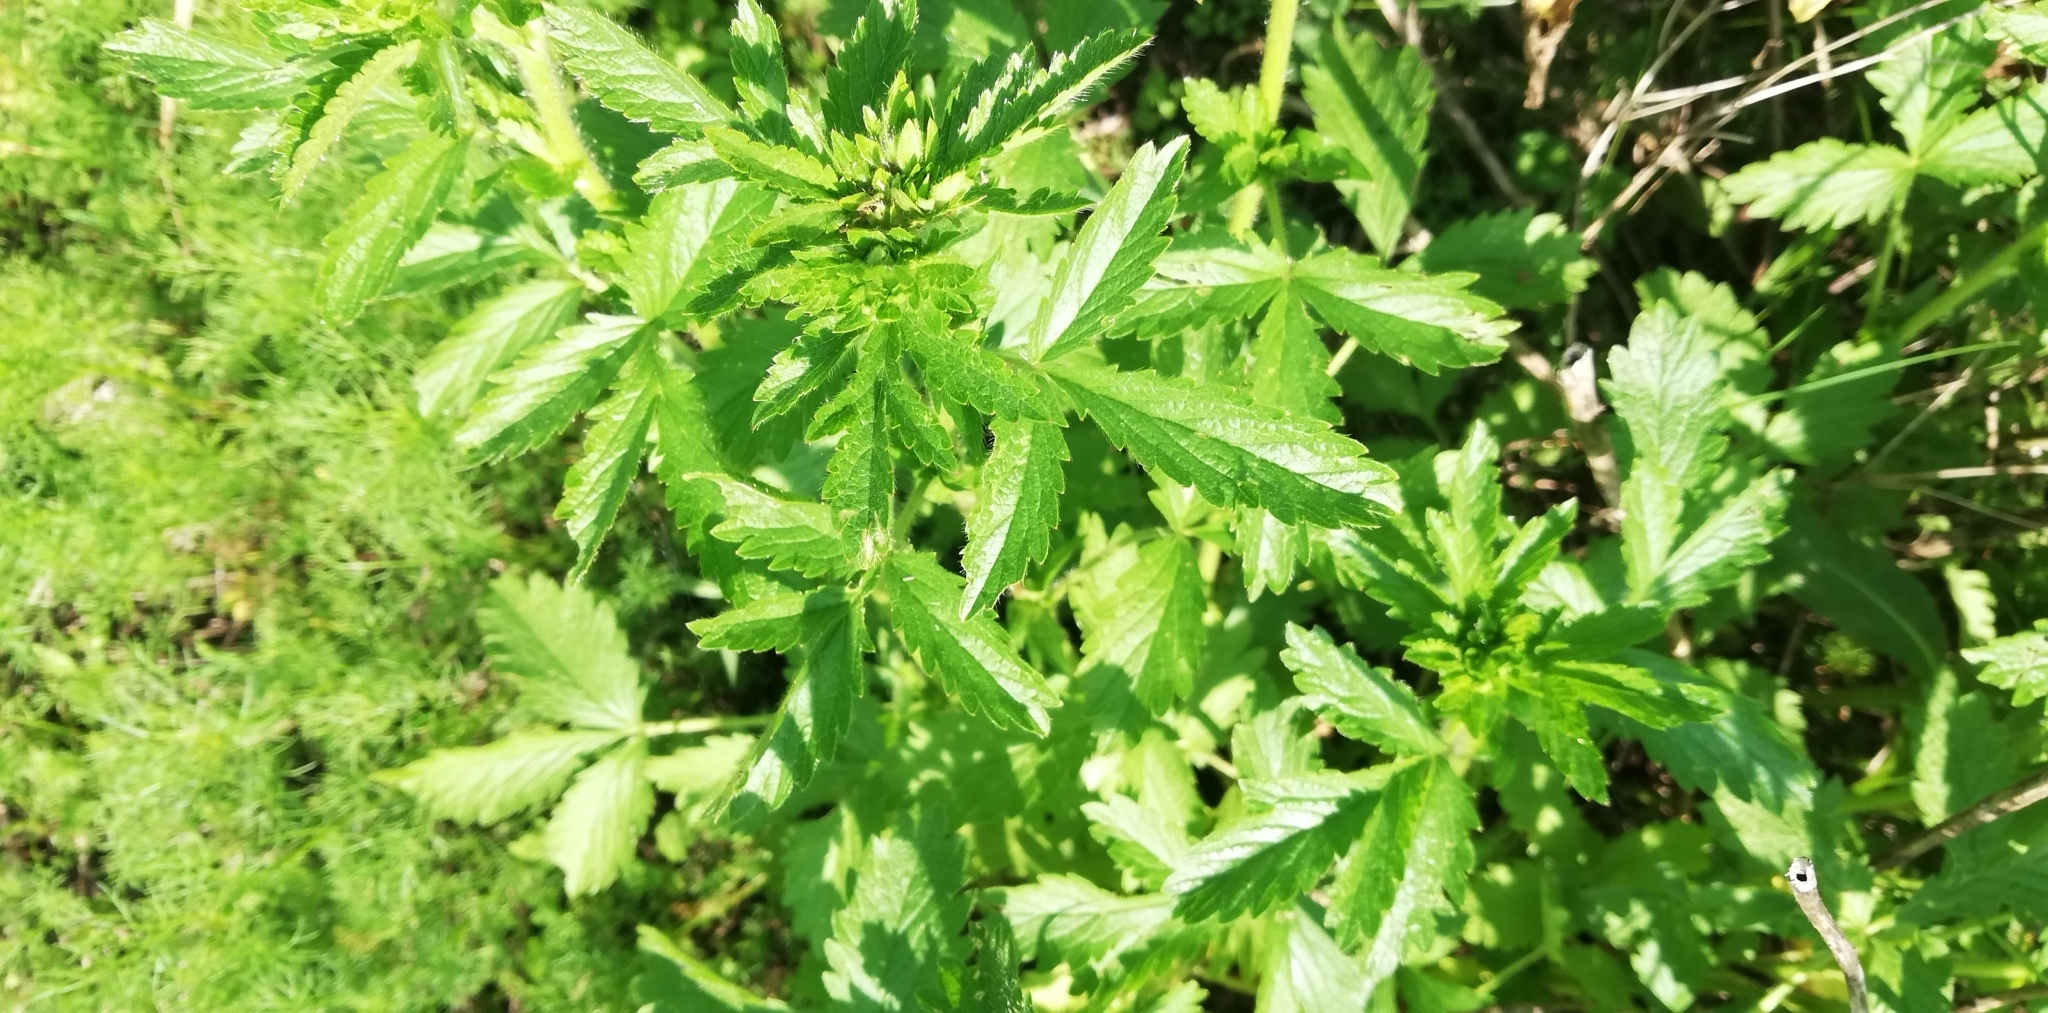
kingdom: Plantae
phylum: Tracheophyta
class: Magnoliopsida
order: Rosales
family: Rosaceae
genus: Potentilla
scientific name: Potentilla norvegica
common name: Ternate-leaved cinquefoil
